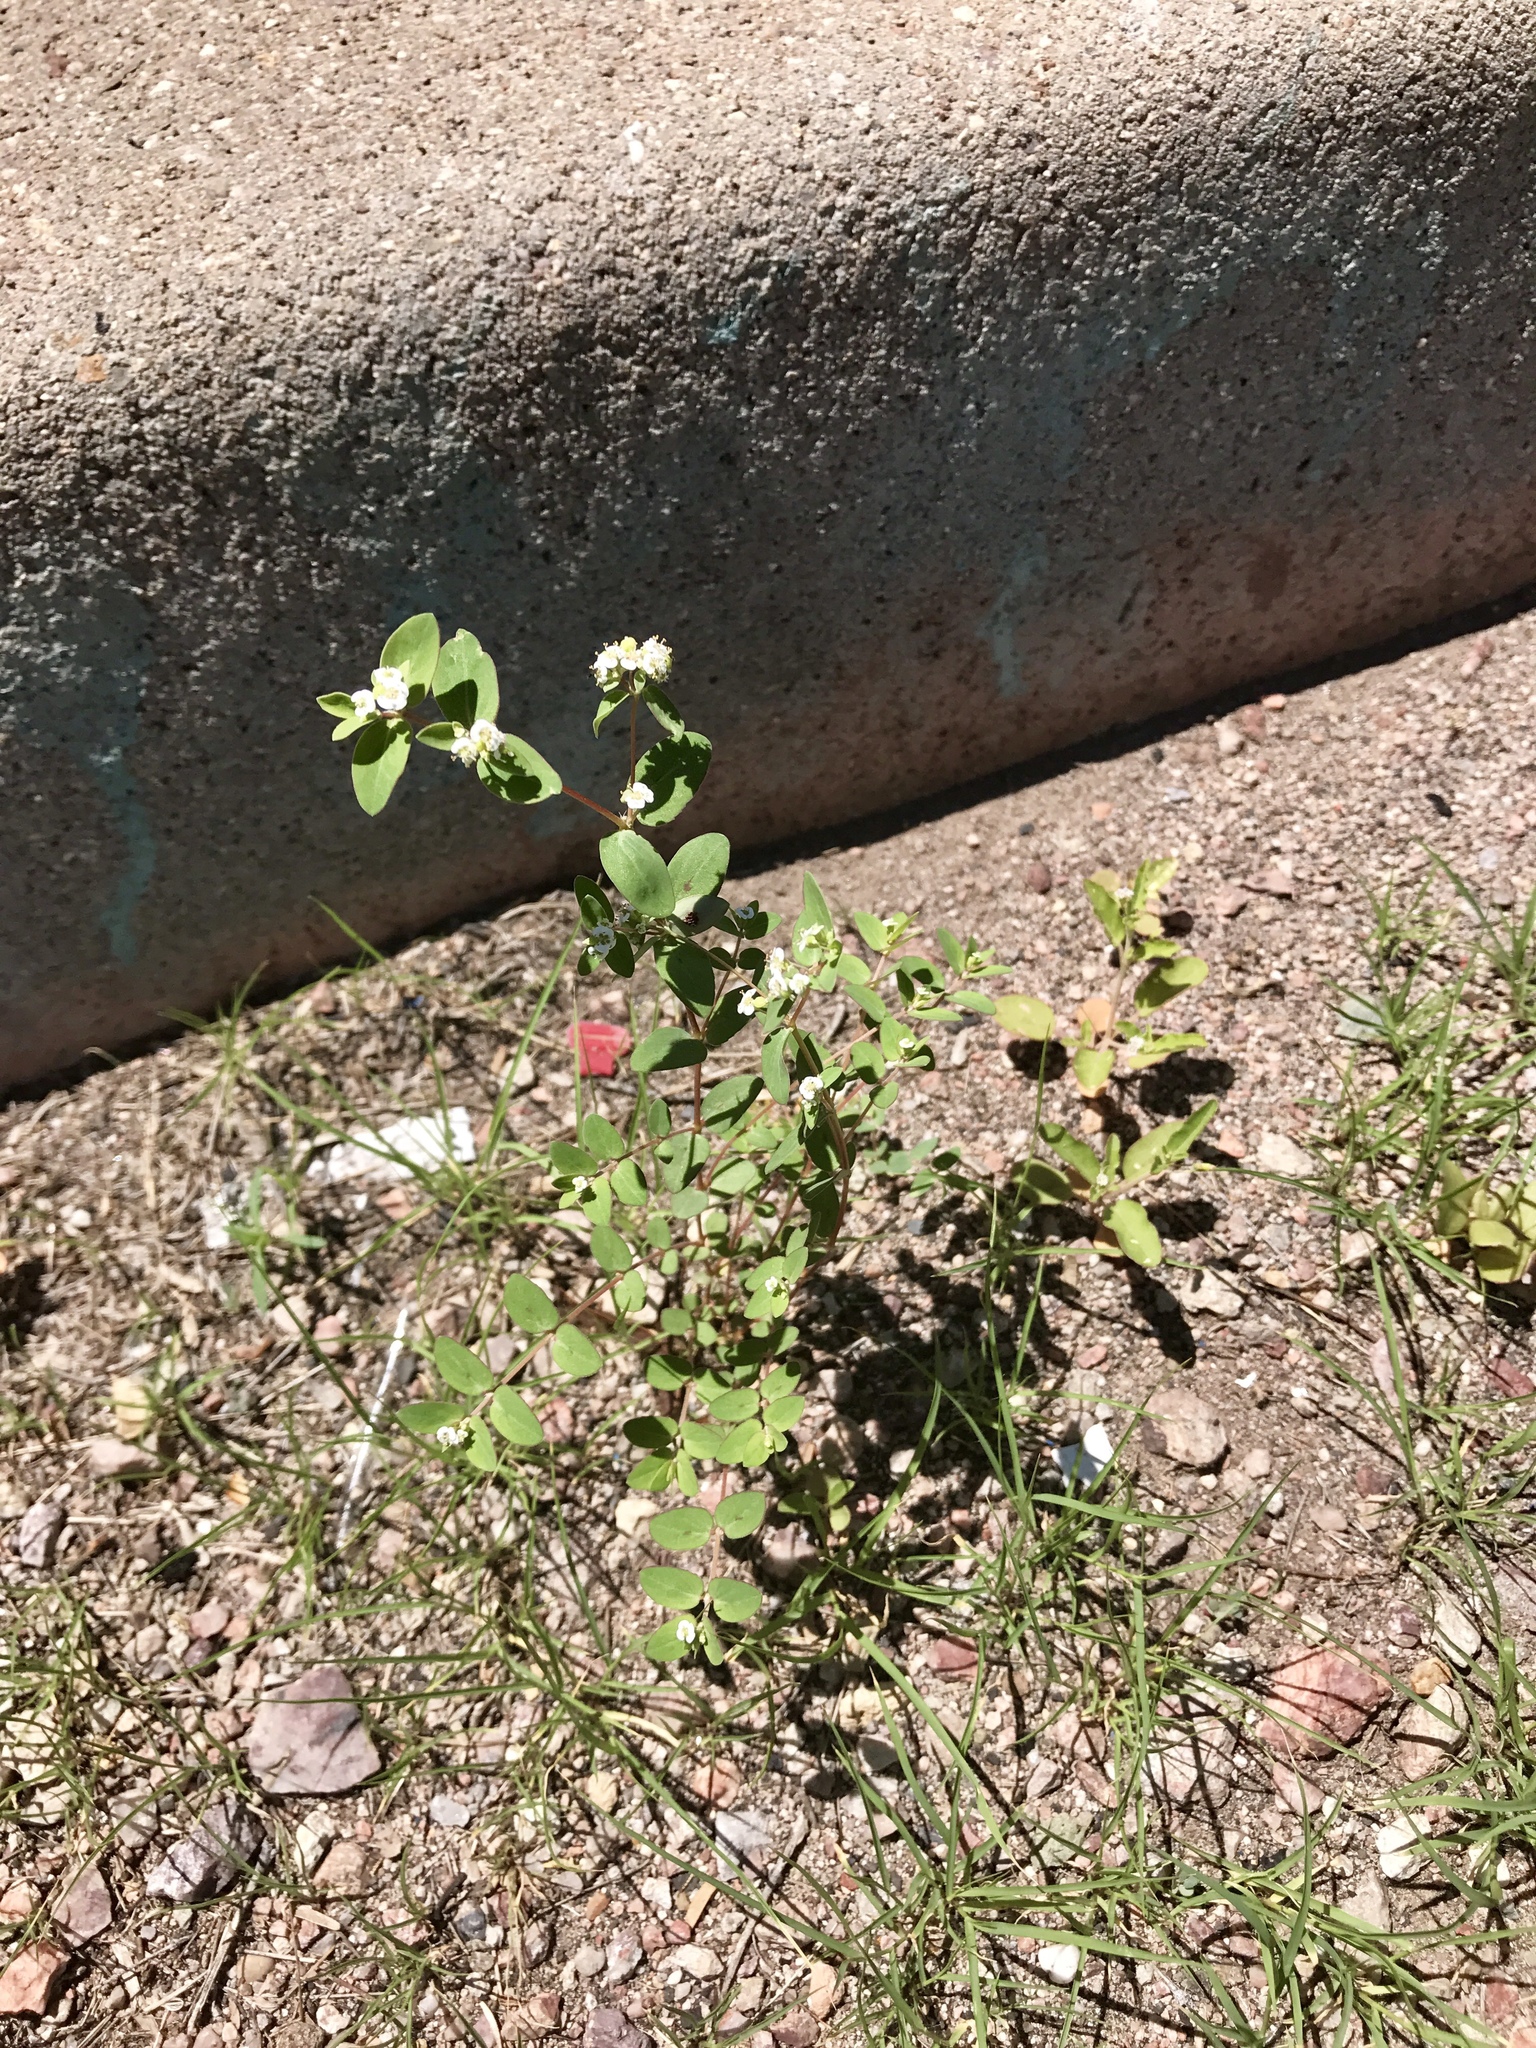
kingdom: Plantae
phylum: Tracheophyta
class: Magnoliopsida
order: Malpighiales
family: Euphorbiaceae
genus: Euphorbia
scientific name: Euphorbia capitellata
